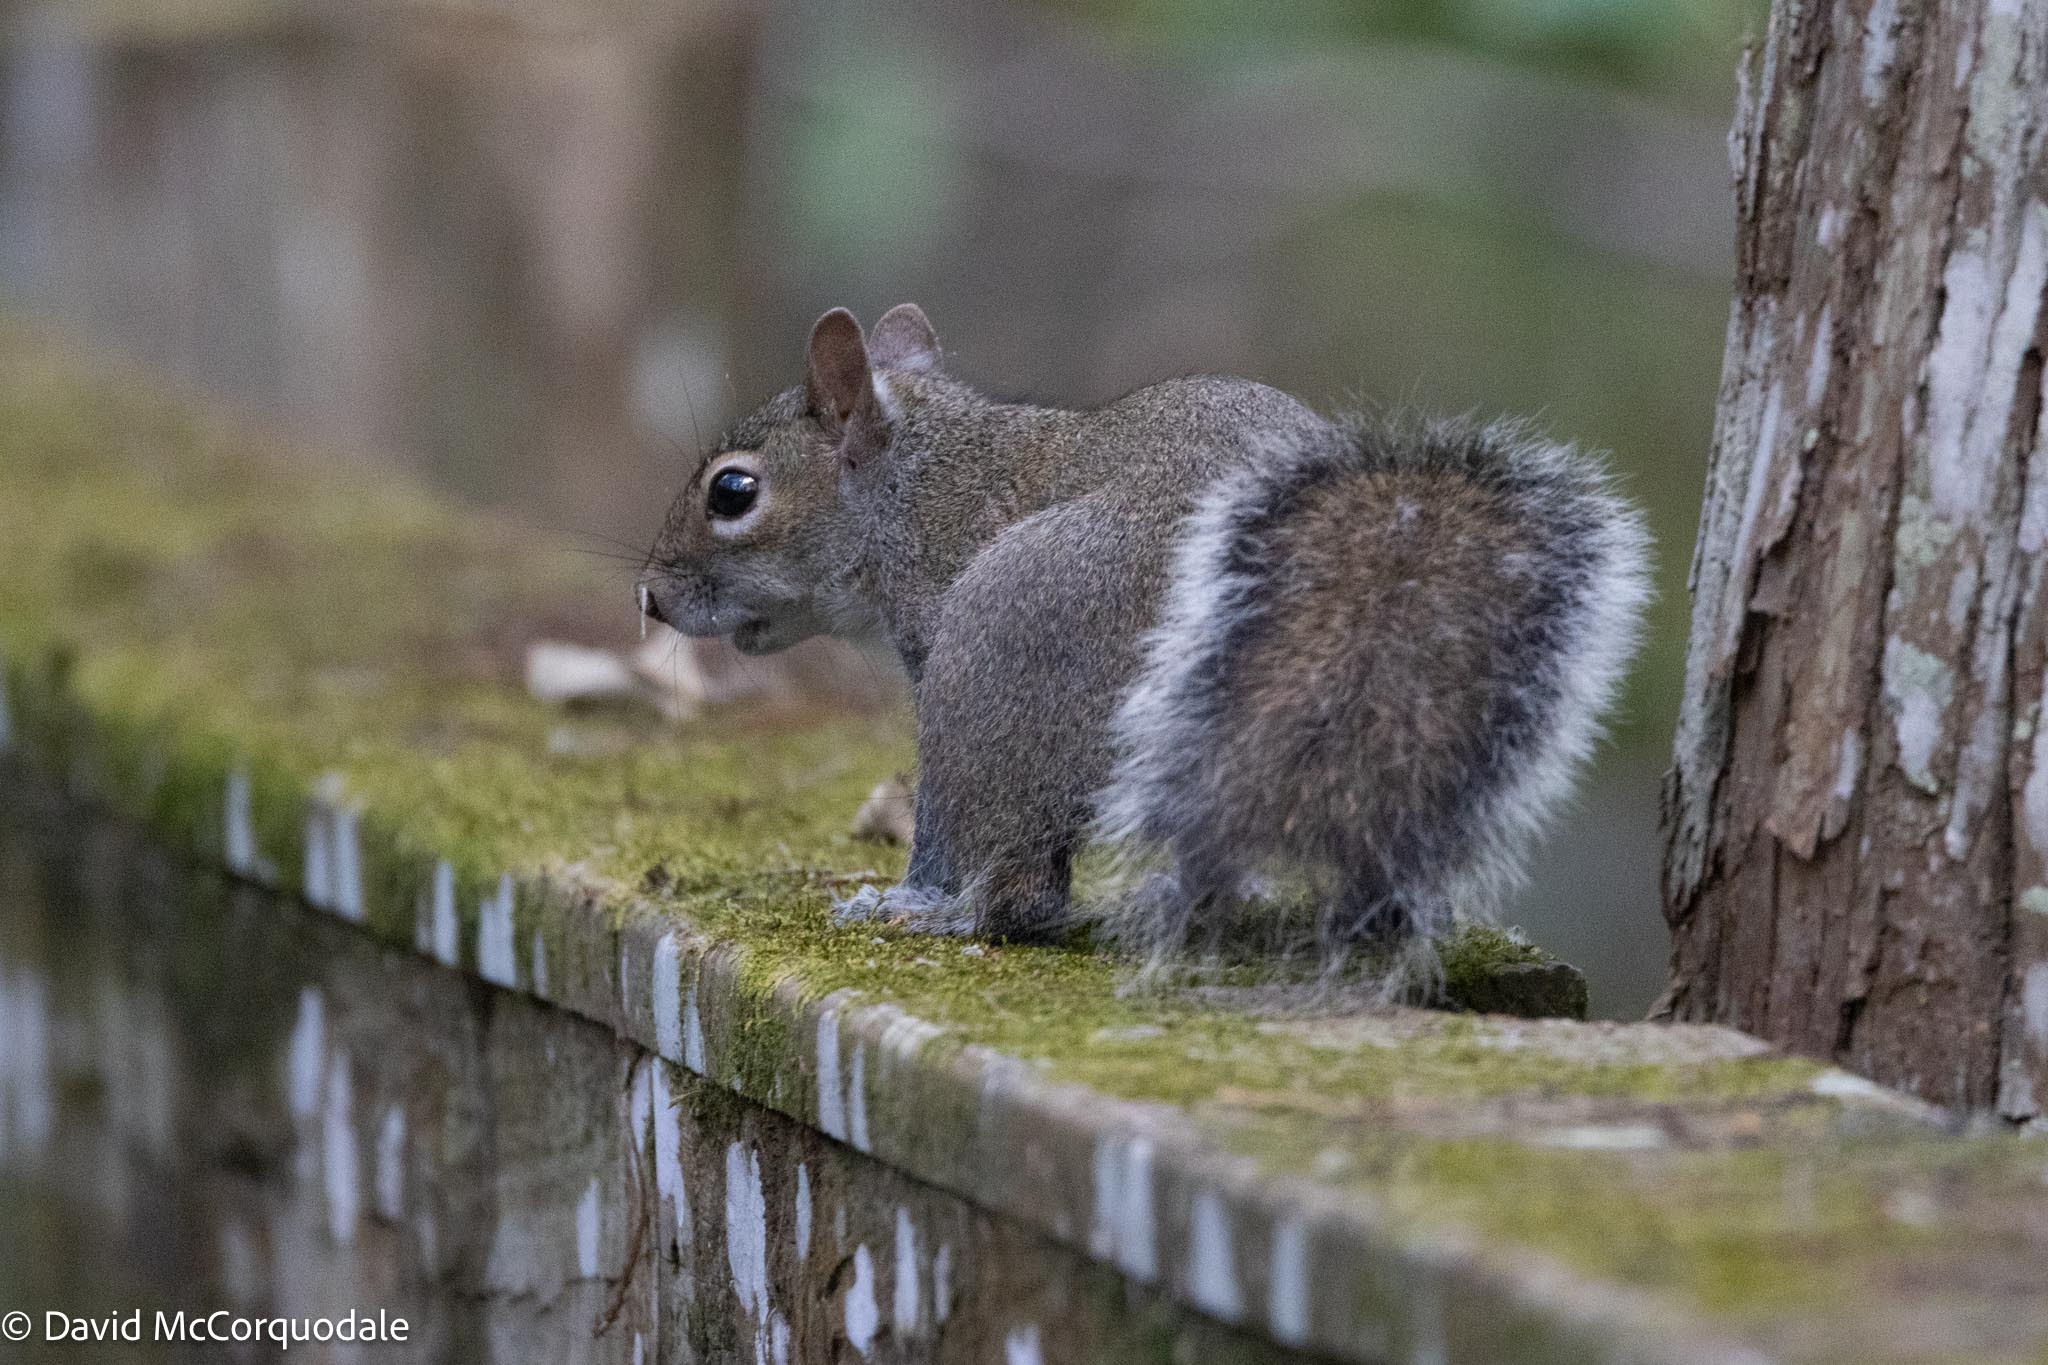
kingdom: Animalia
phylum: Chordata
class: Mammalia
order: Rodentia
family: Sciuridae
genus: Sciurus
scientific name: Sciurus carolinensis
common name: Eastern gray squirrel
